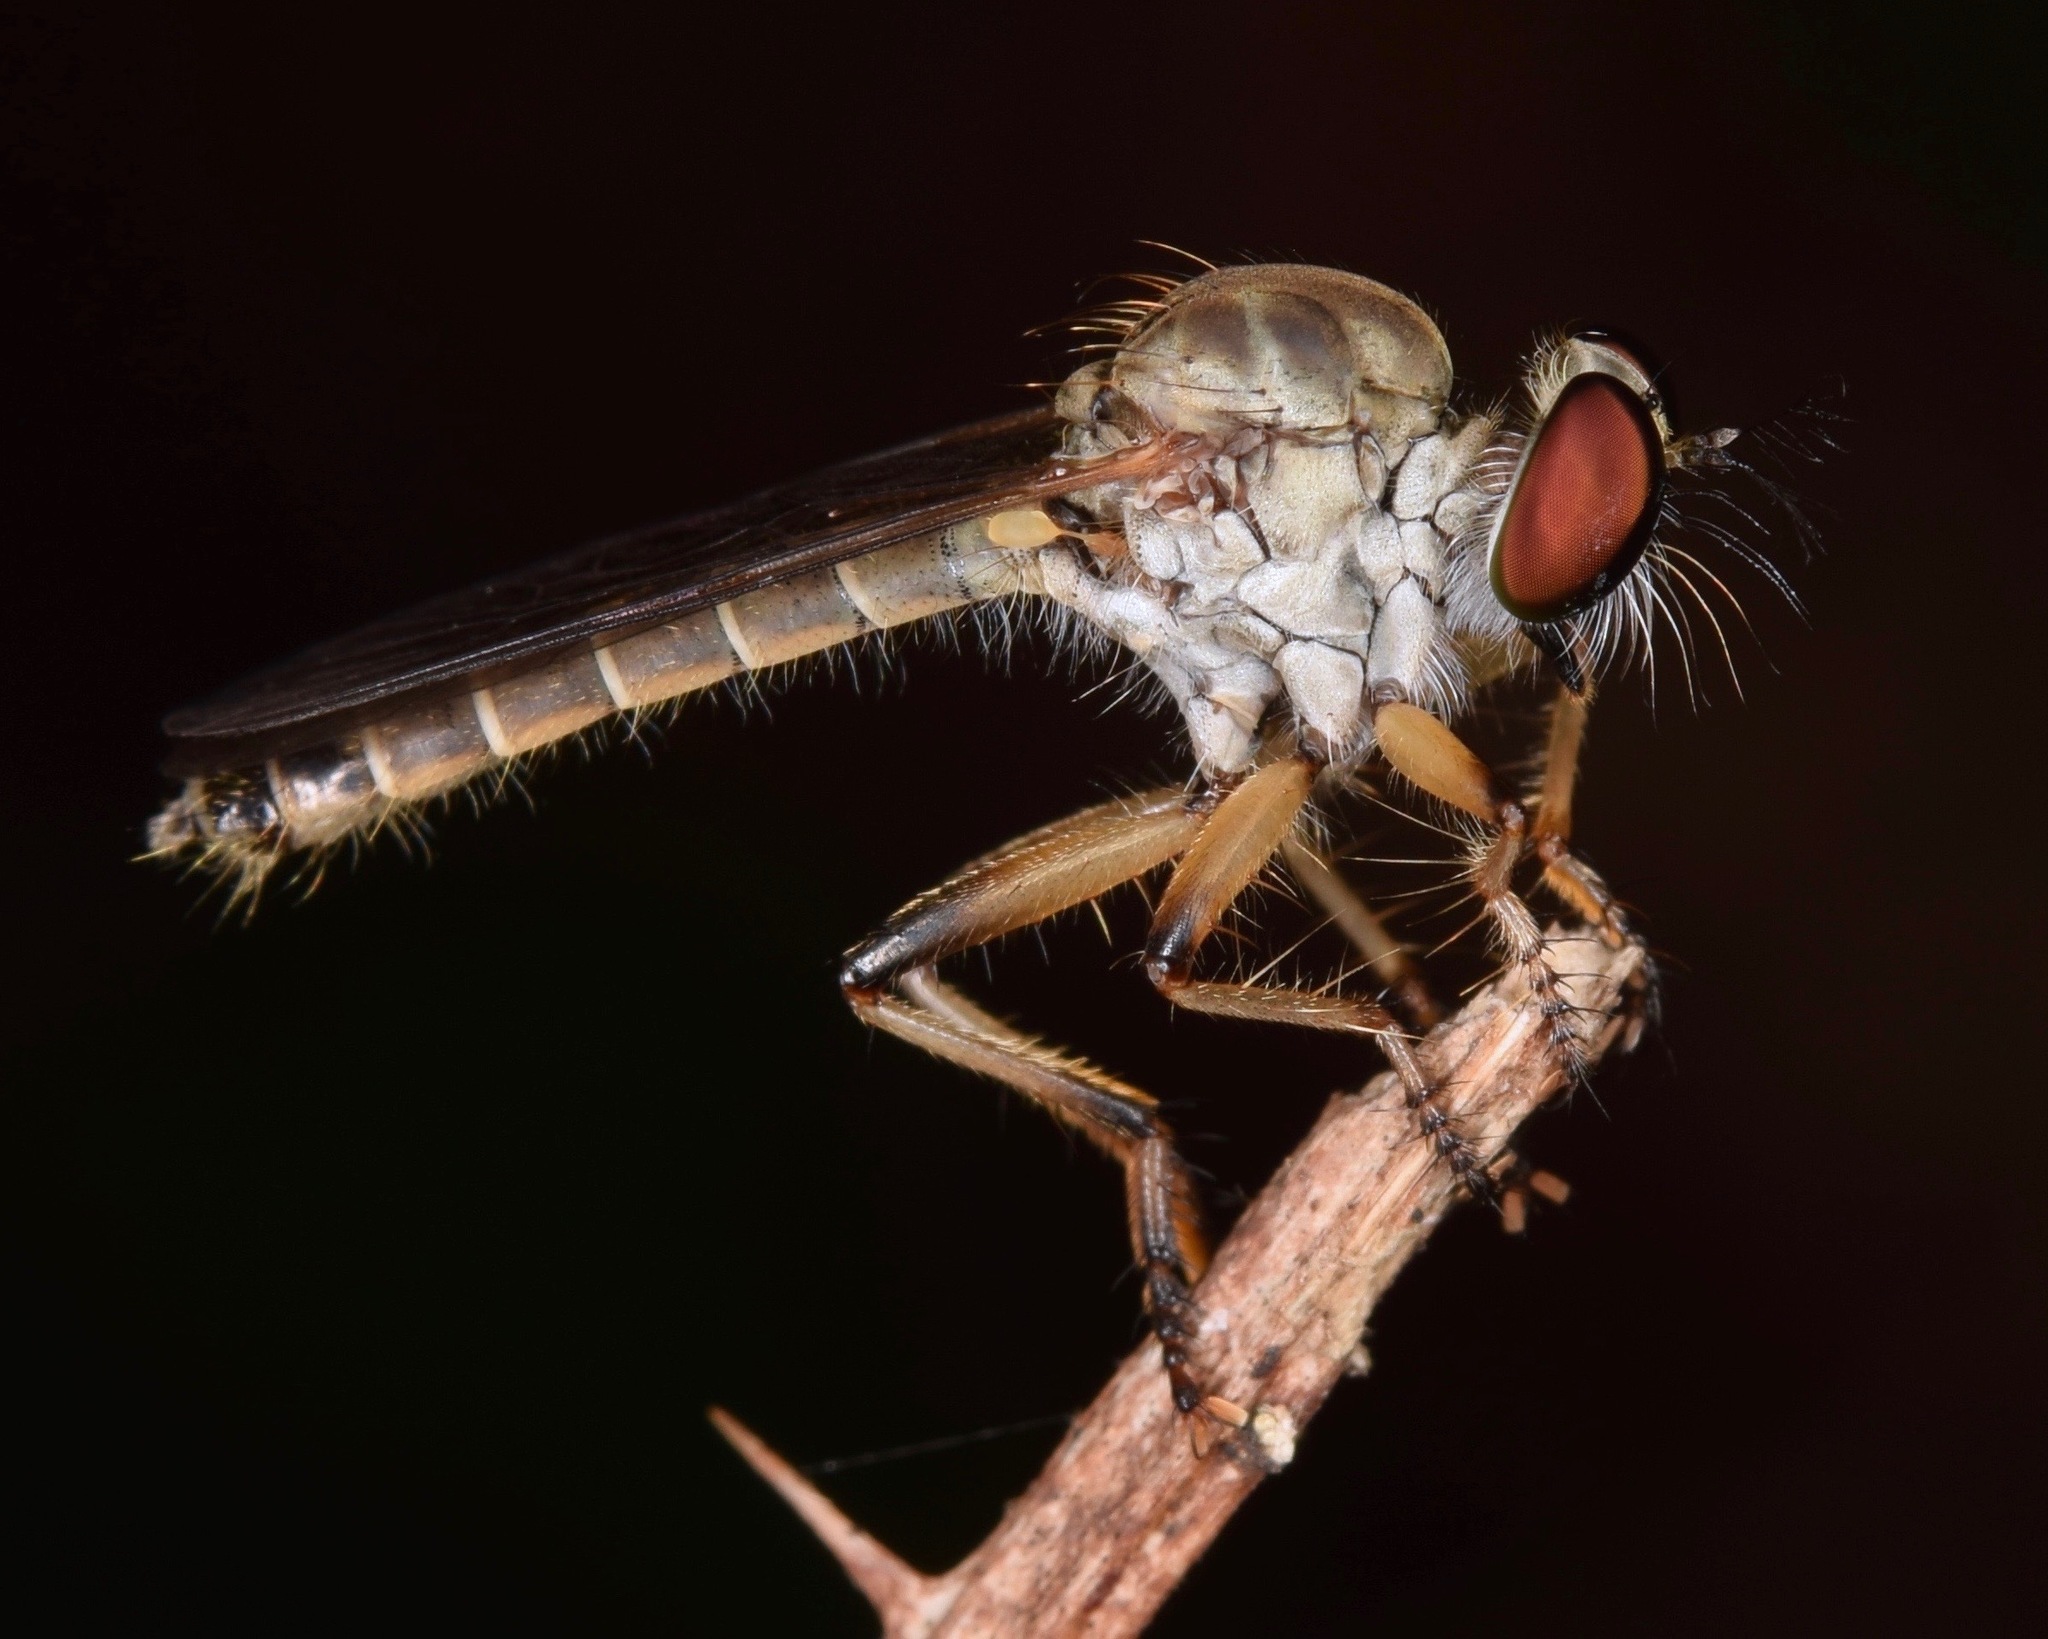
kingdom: Animalia
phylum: Arthropoda
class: Insecta
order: Diptera
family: Asilidae
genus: Ommatius
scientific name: Ommatius gemma
